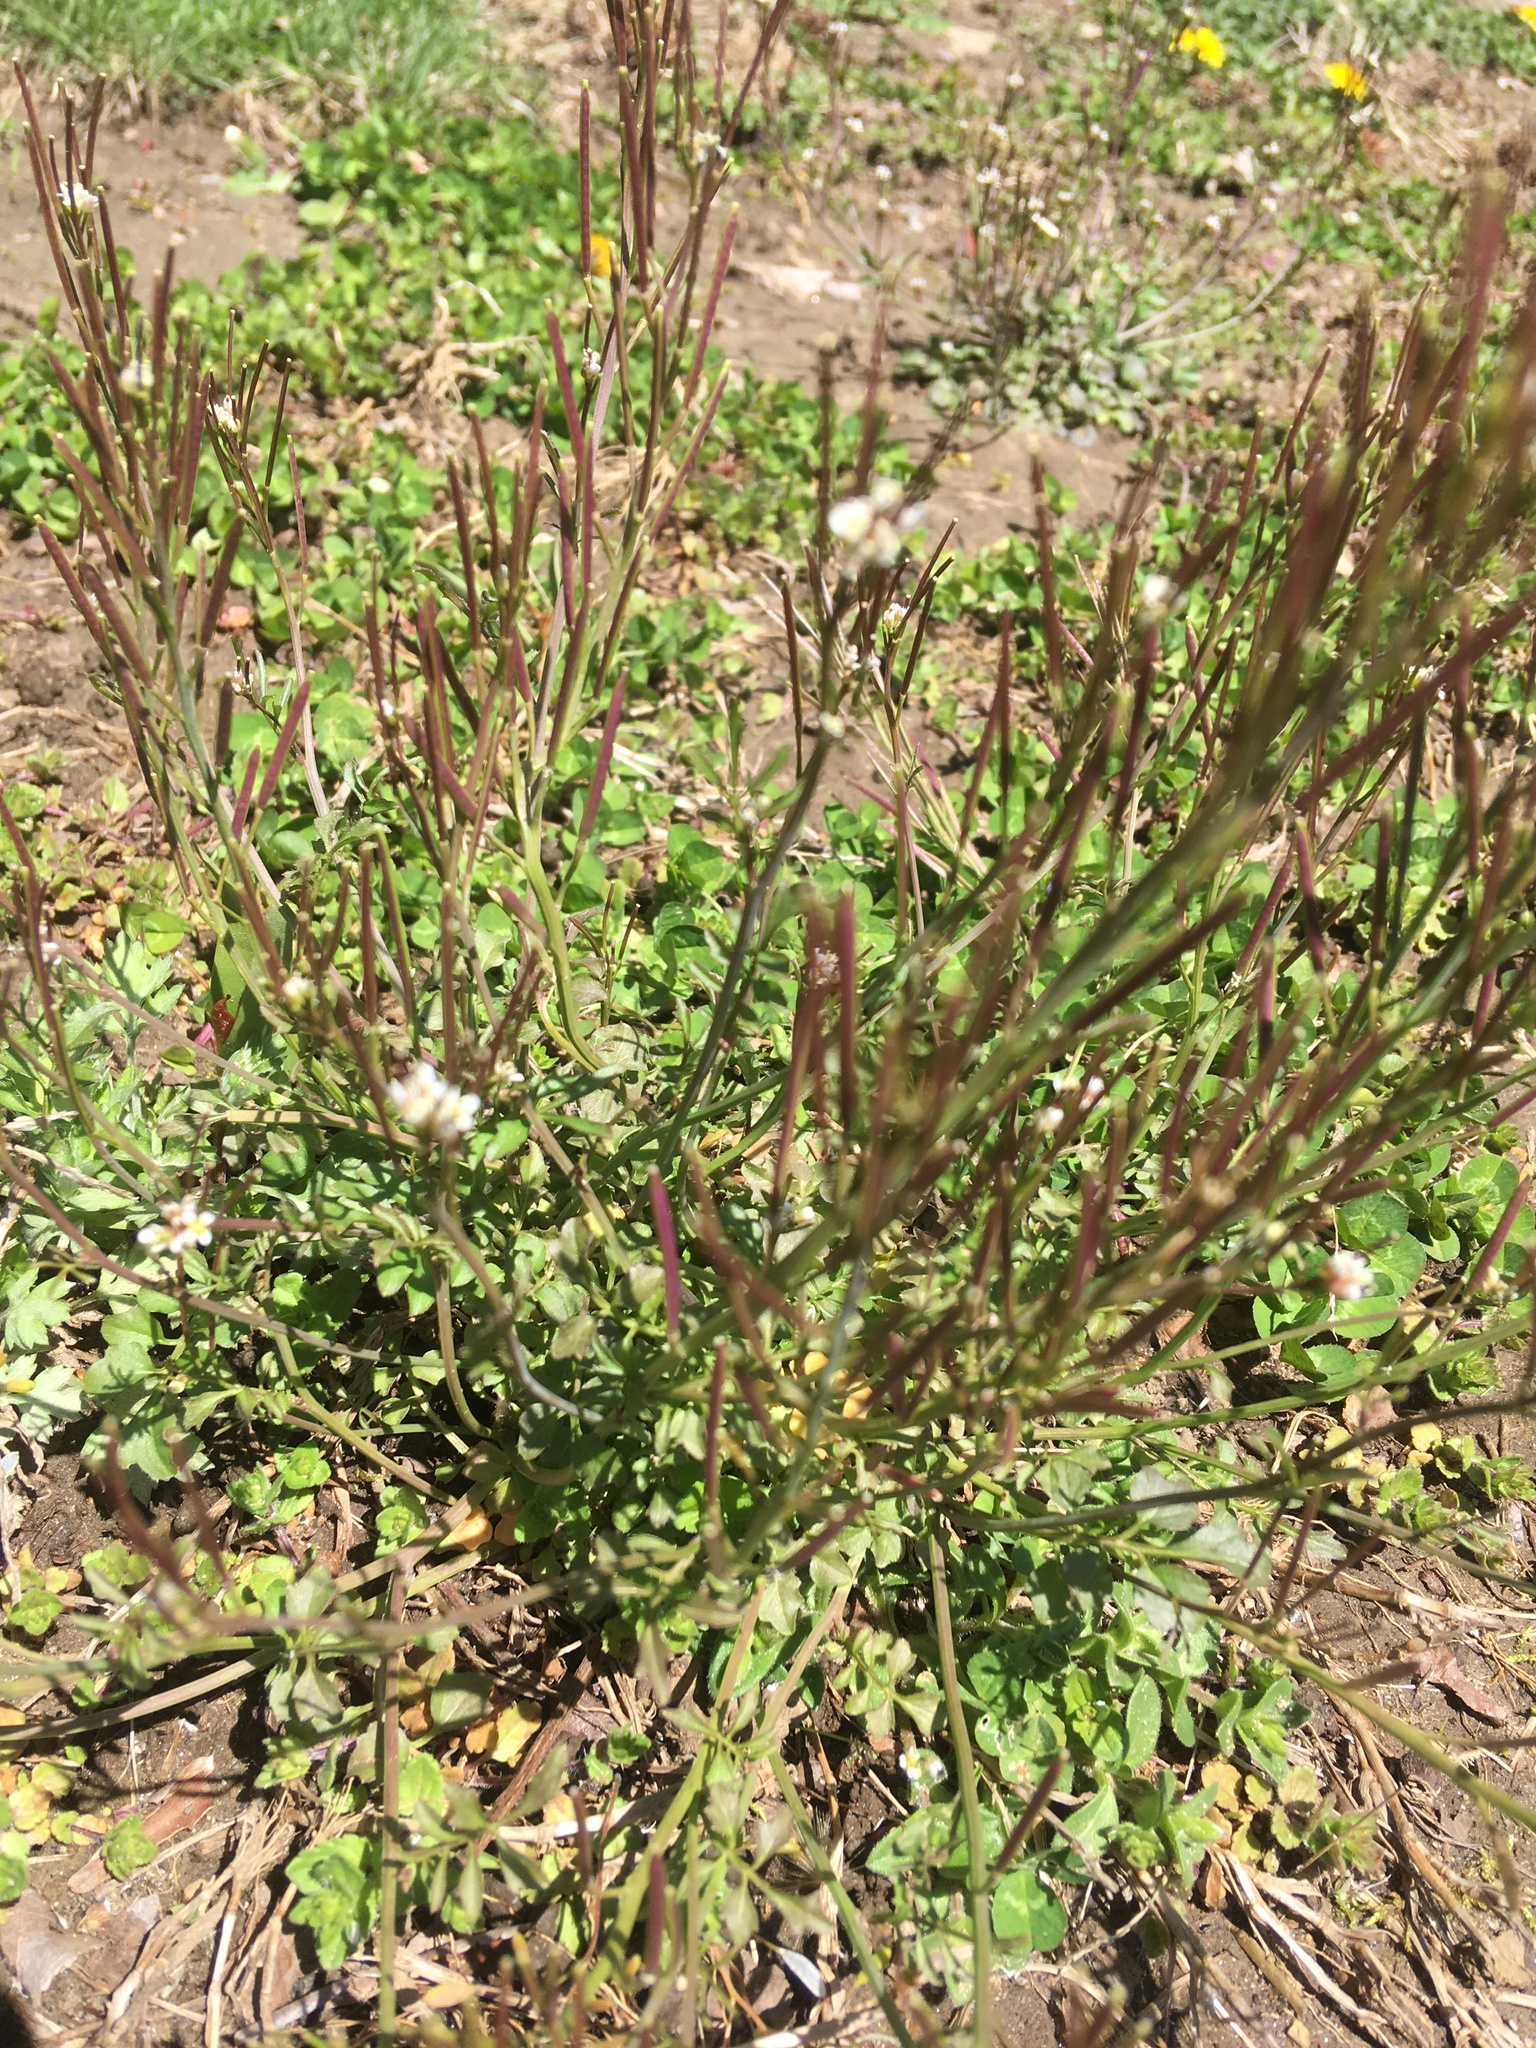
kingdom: Plantae
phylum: Tracheophyta
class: Magnoliopsida
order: Brassicales
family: Brassicaceae
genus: Cardamine
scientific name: Cardamine hirsuta
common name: Hairy bittercress
